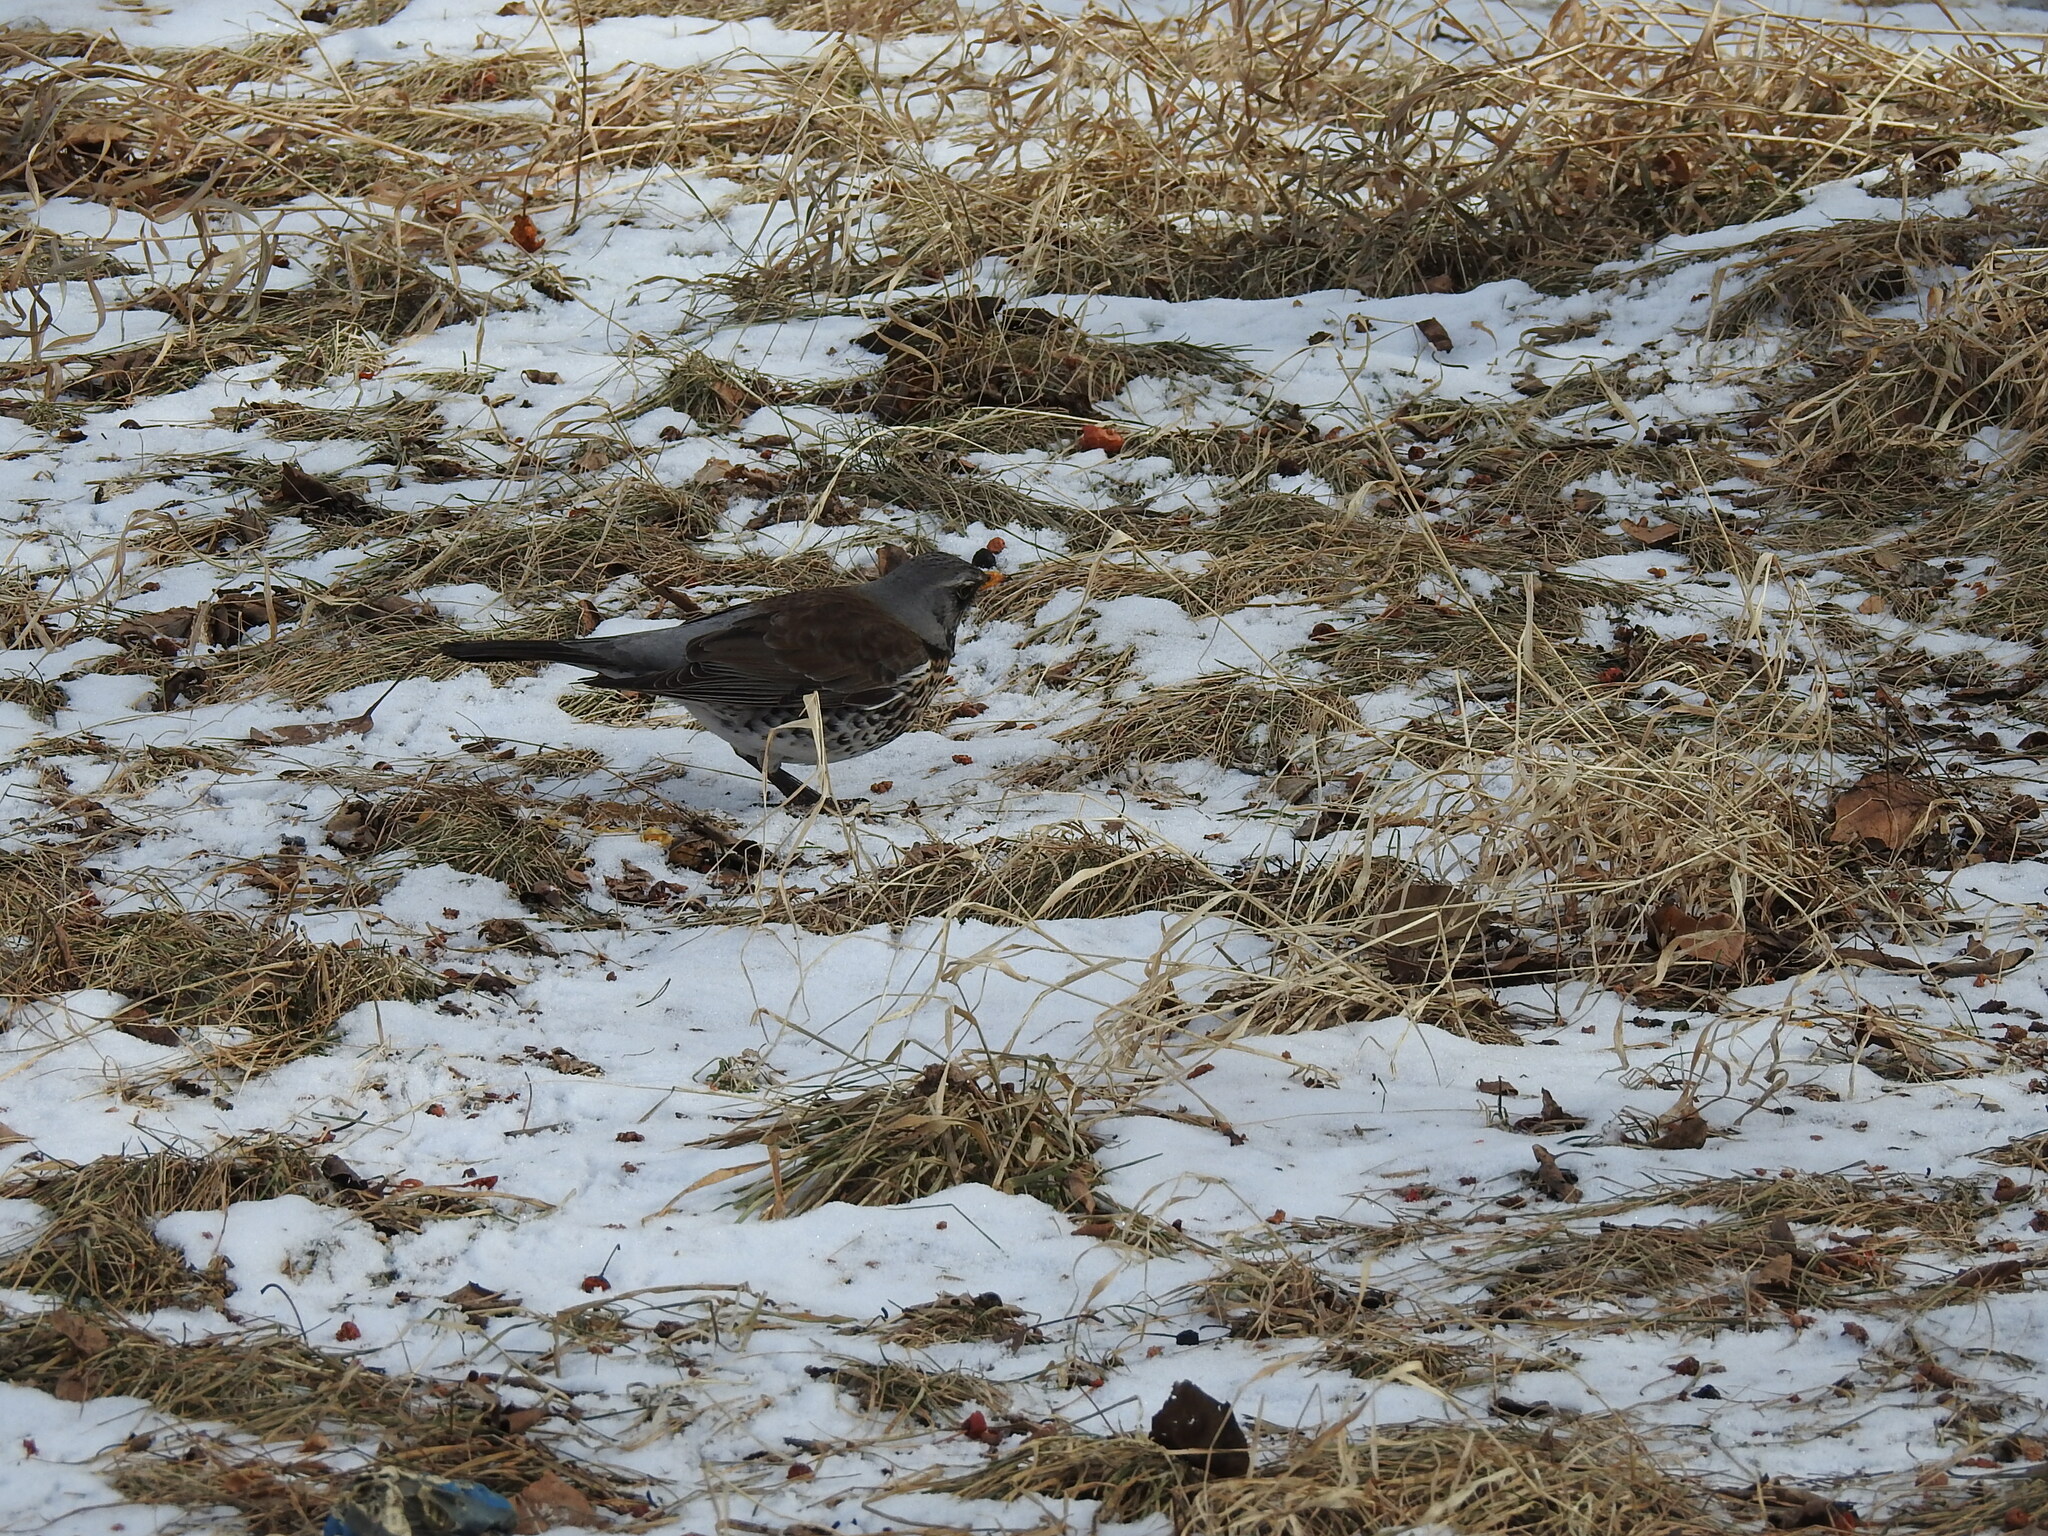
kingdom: Animalia
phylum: Chordata
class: Aves
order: Passeriformes
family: Turdidae
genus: Turdus
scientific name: Turdus pilaris
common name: Fieldfare
